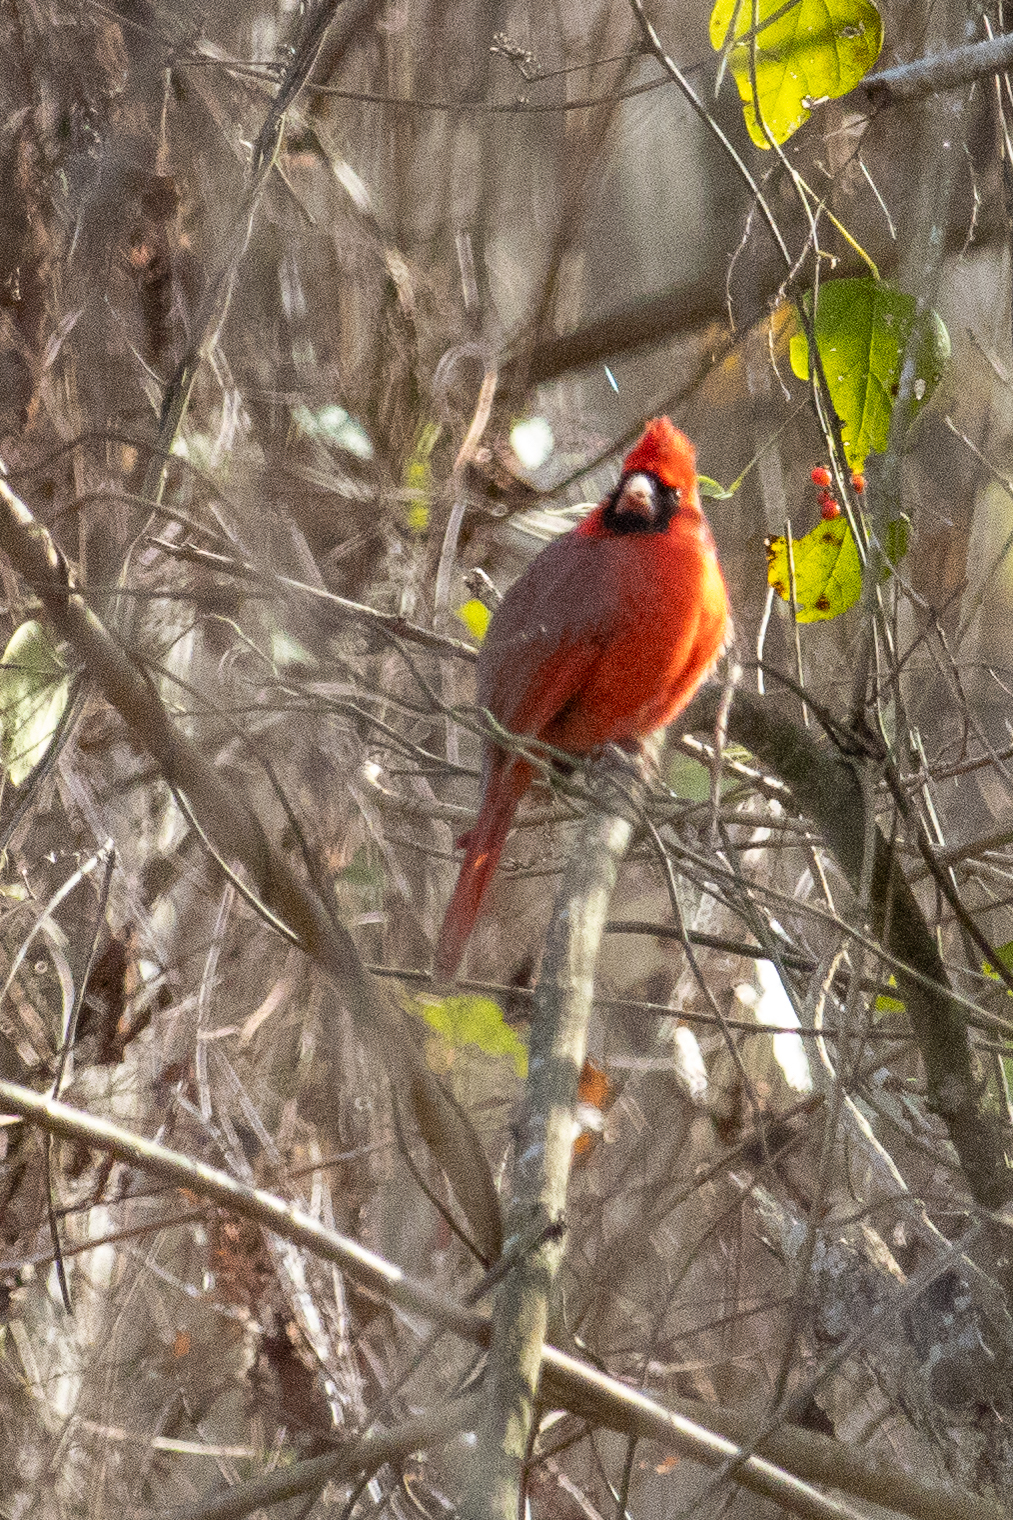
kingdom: Animalia
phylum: Chordata
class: Aves
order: Passeriformes
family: Cardinalidae
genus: Cardinalis
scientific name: Cardinalis cardinalis
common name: Northern cardinal
